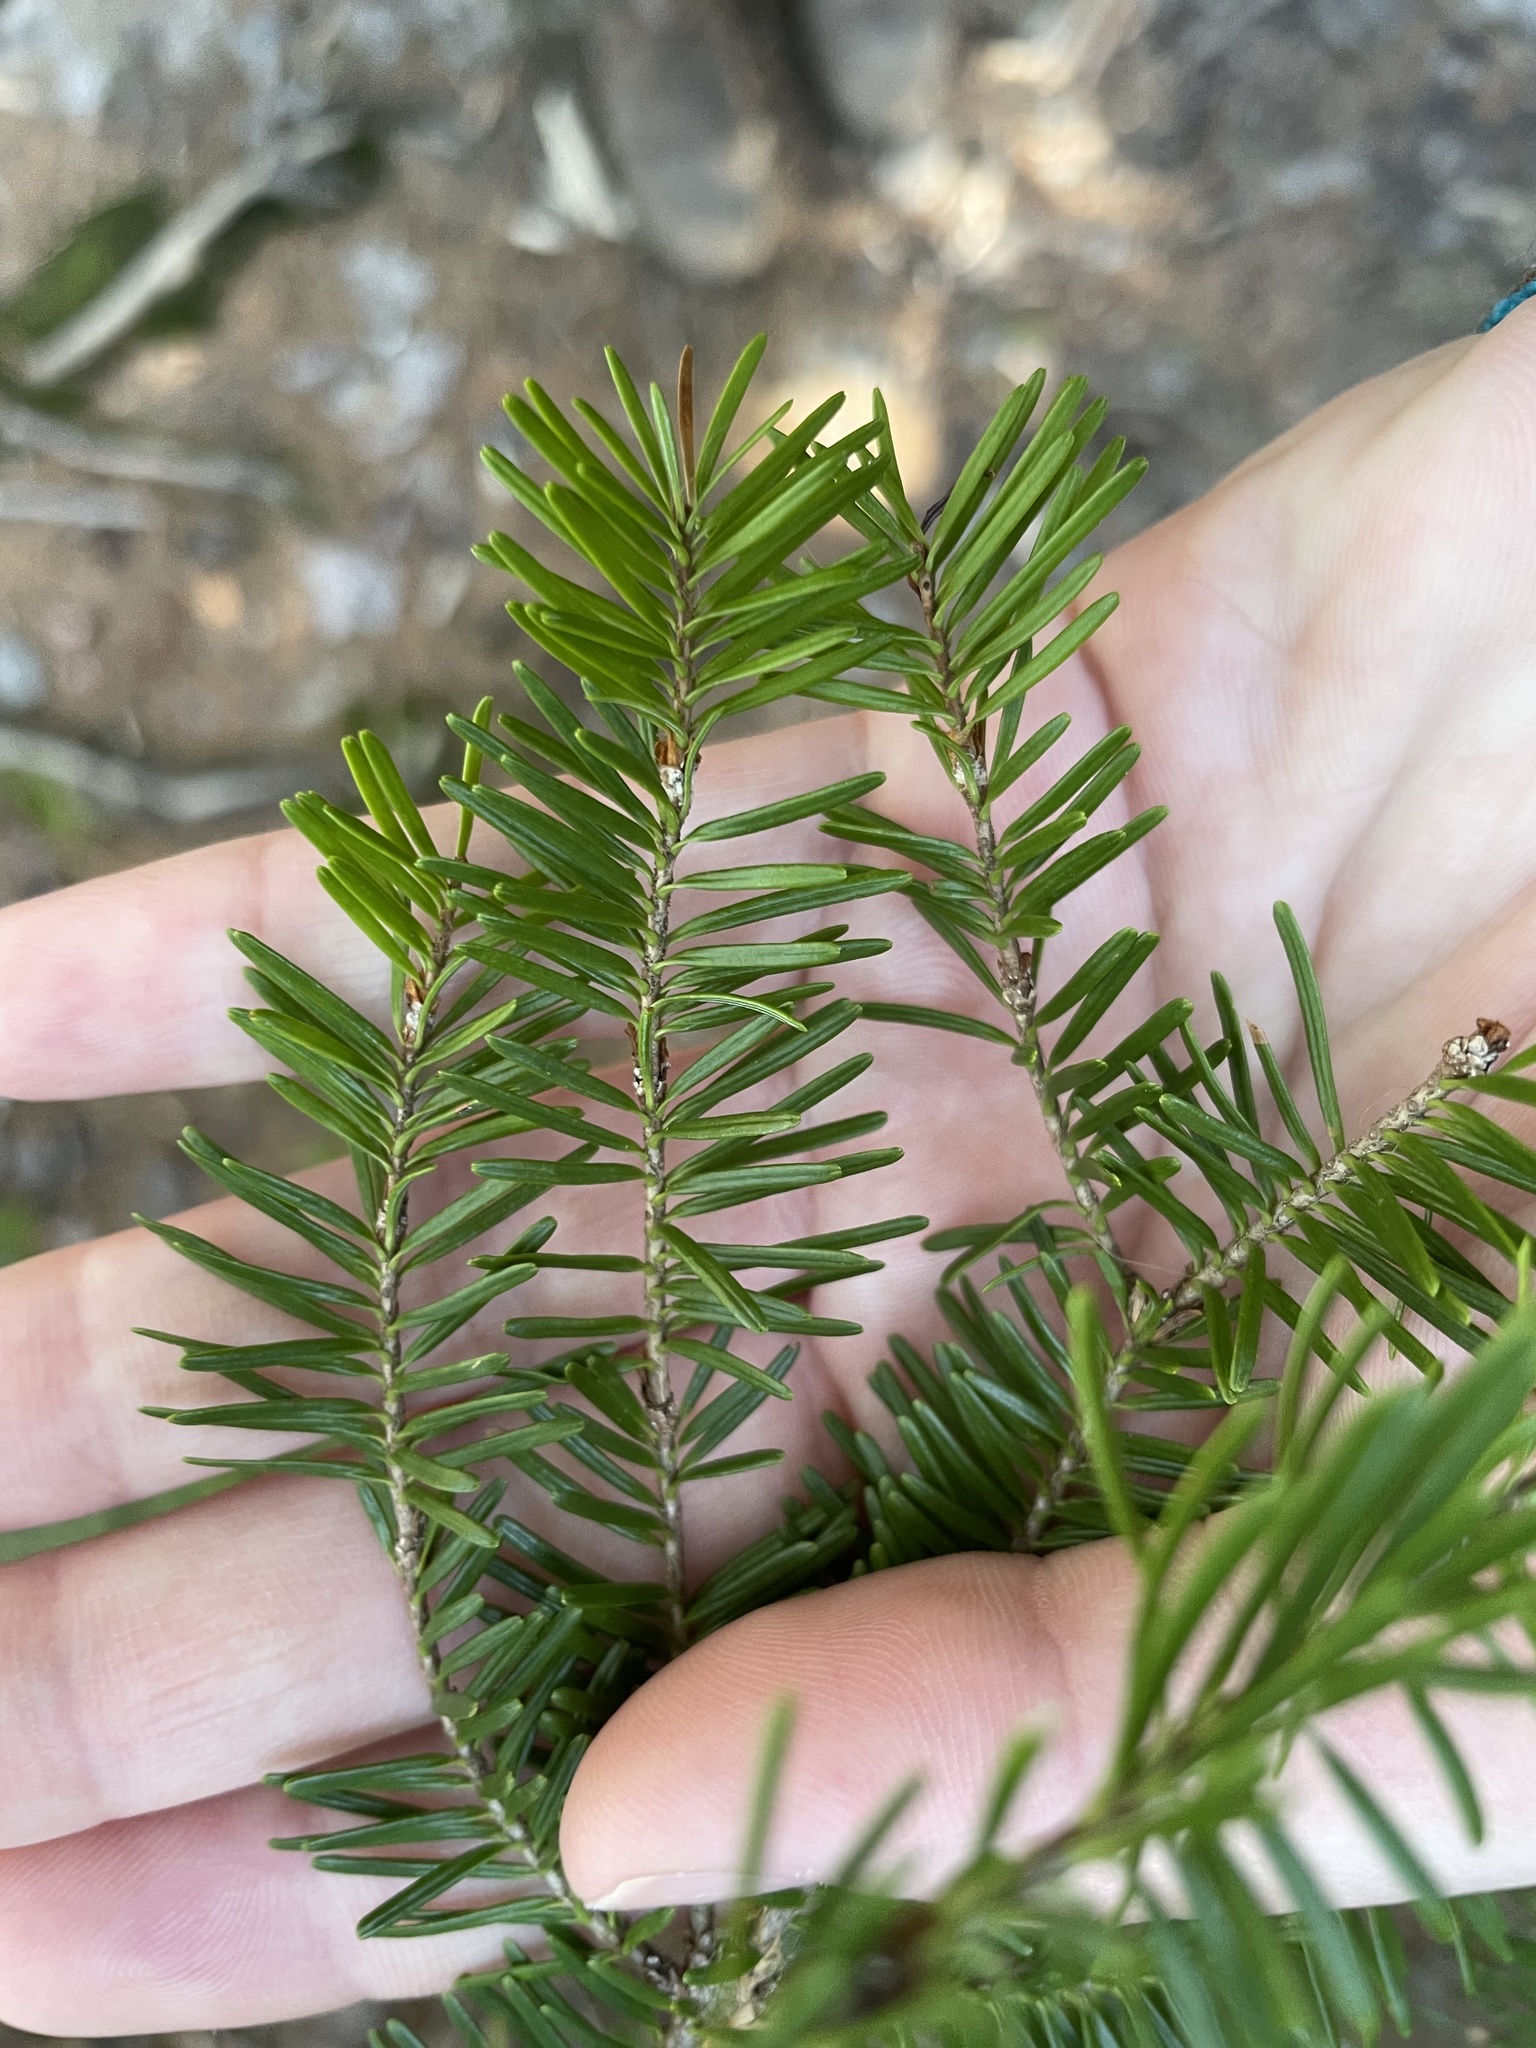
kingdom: Plantae
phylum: Tracheophyta
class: Pinopsida
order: Pinales
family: Pinaceae
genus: Abies
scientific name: Abies balsamea
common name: Balsam fir
